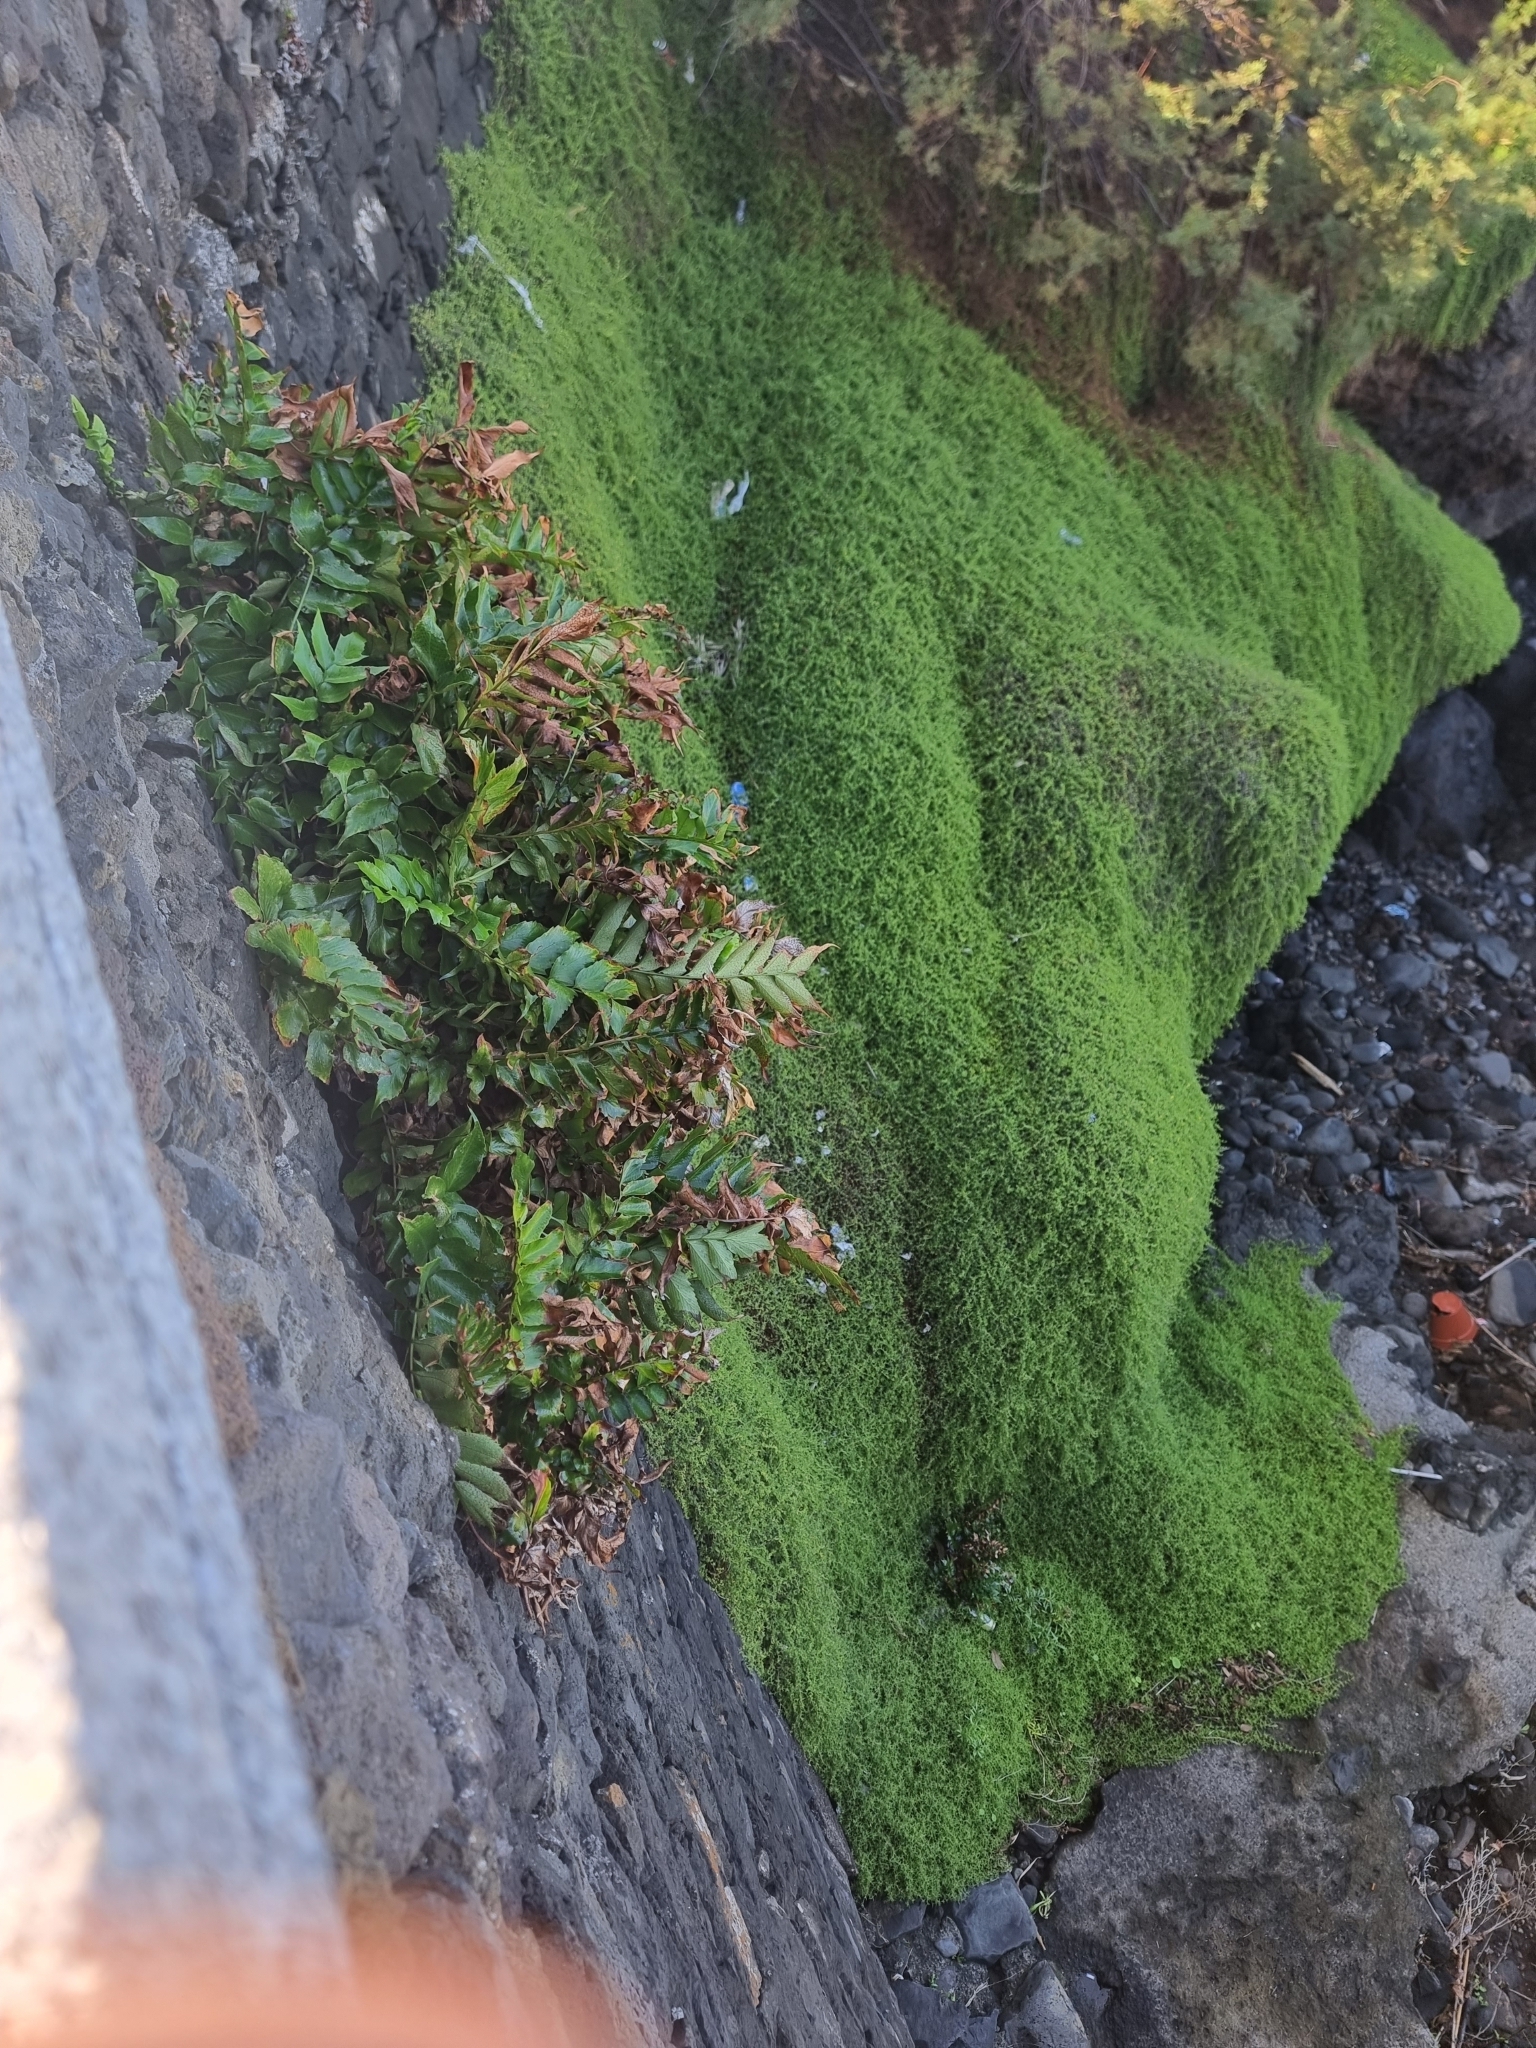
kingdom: Plantae
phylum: Tracheophyta
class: Polypodiopsida
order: Polypodiales
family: Dryopteridaceae
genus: Cyrtomium
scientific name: Cyrtomium falcatum
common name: House holly-fern
